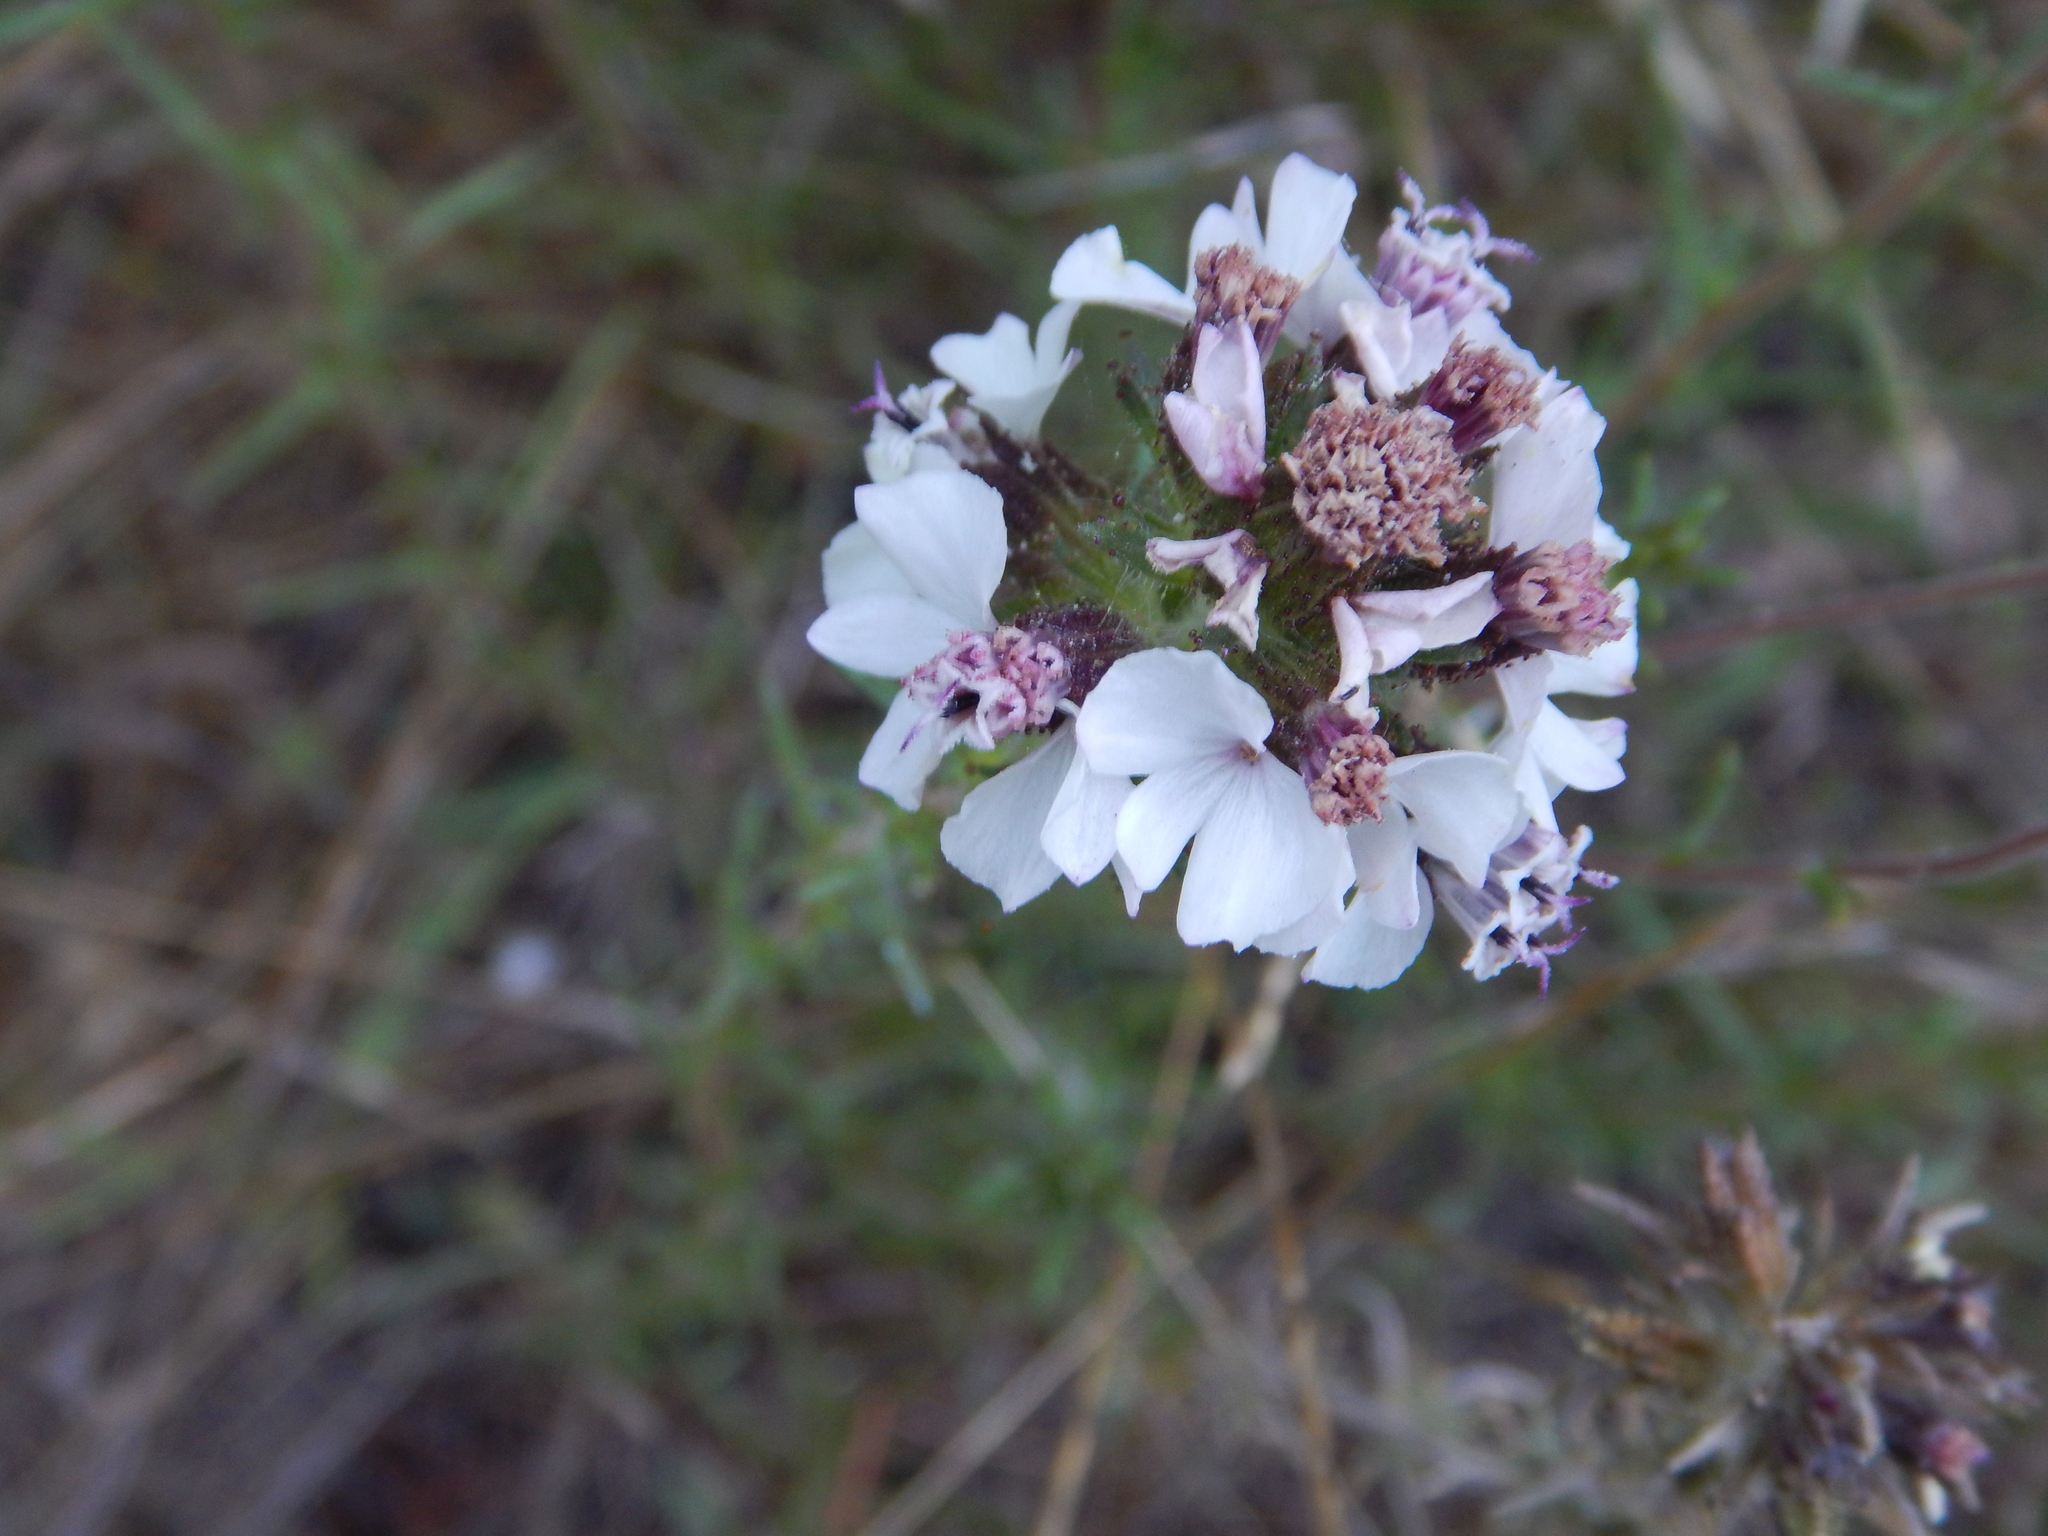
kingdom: Plantae
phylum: Tracheophyta
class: Magnoliopsida
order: Asterales
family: Asteraceae
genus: Calycadenia
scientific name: Calycadenia multiglandulosa
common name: Sticky calycadenia
